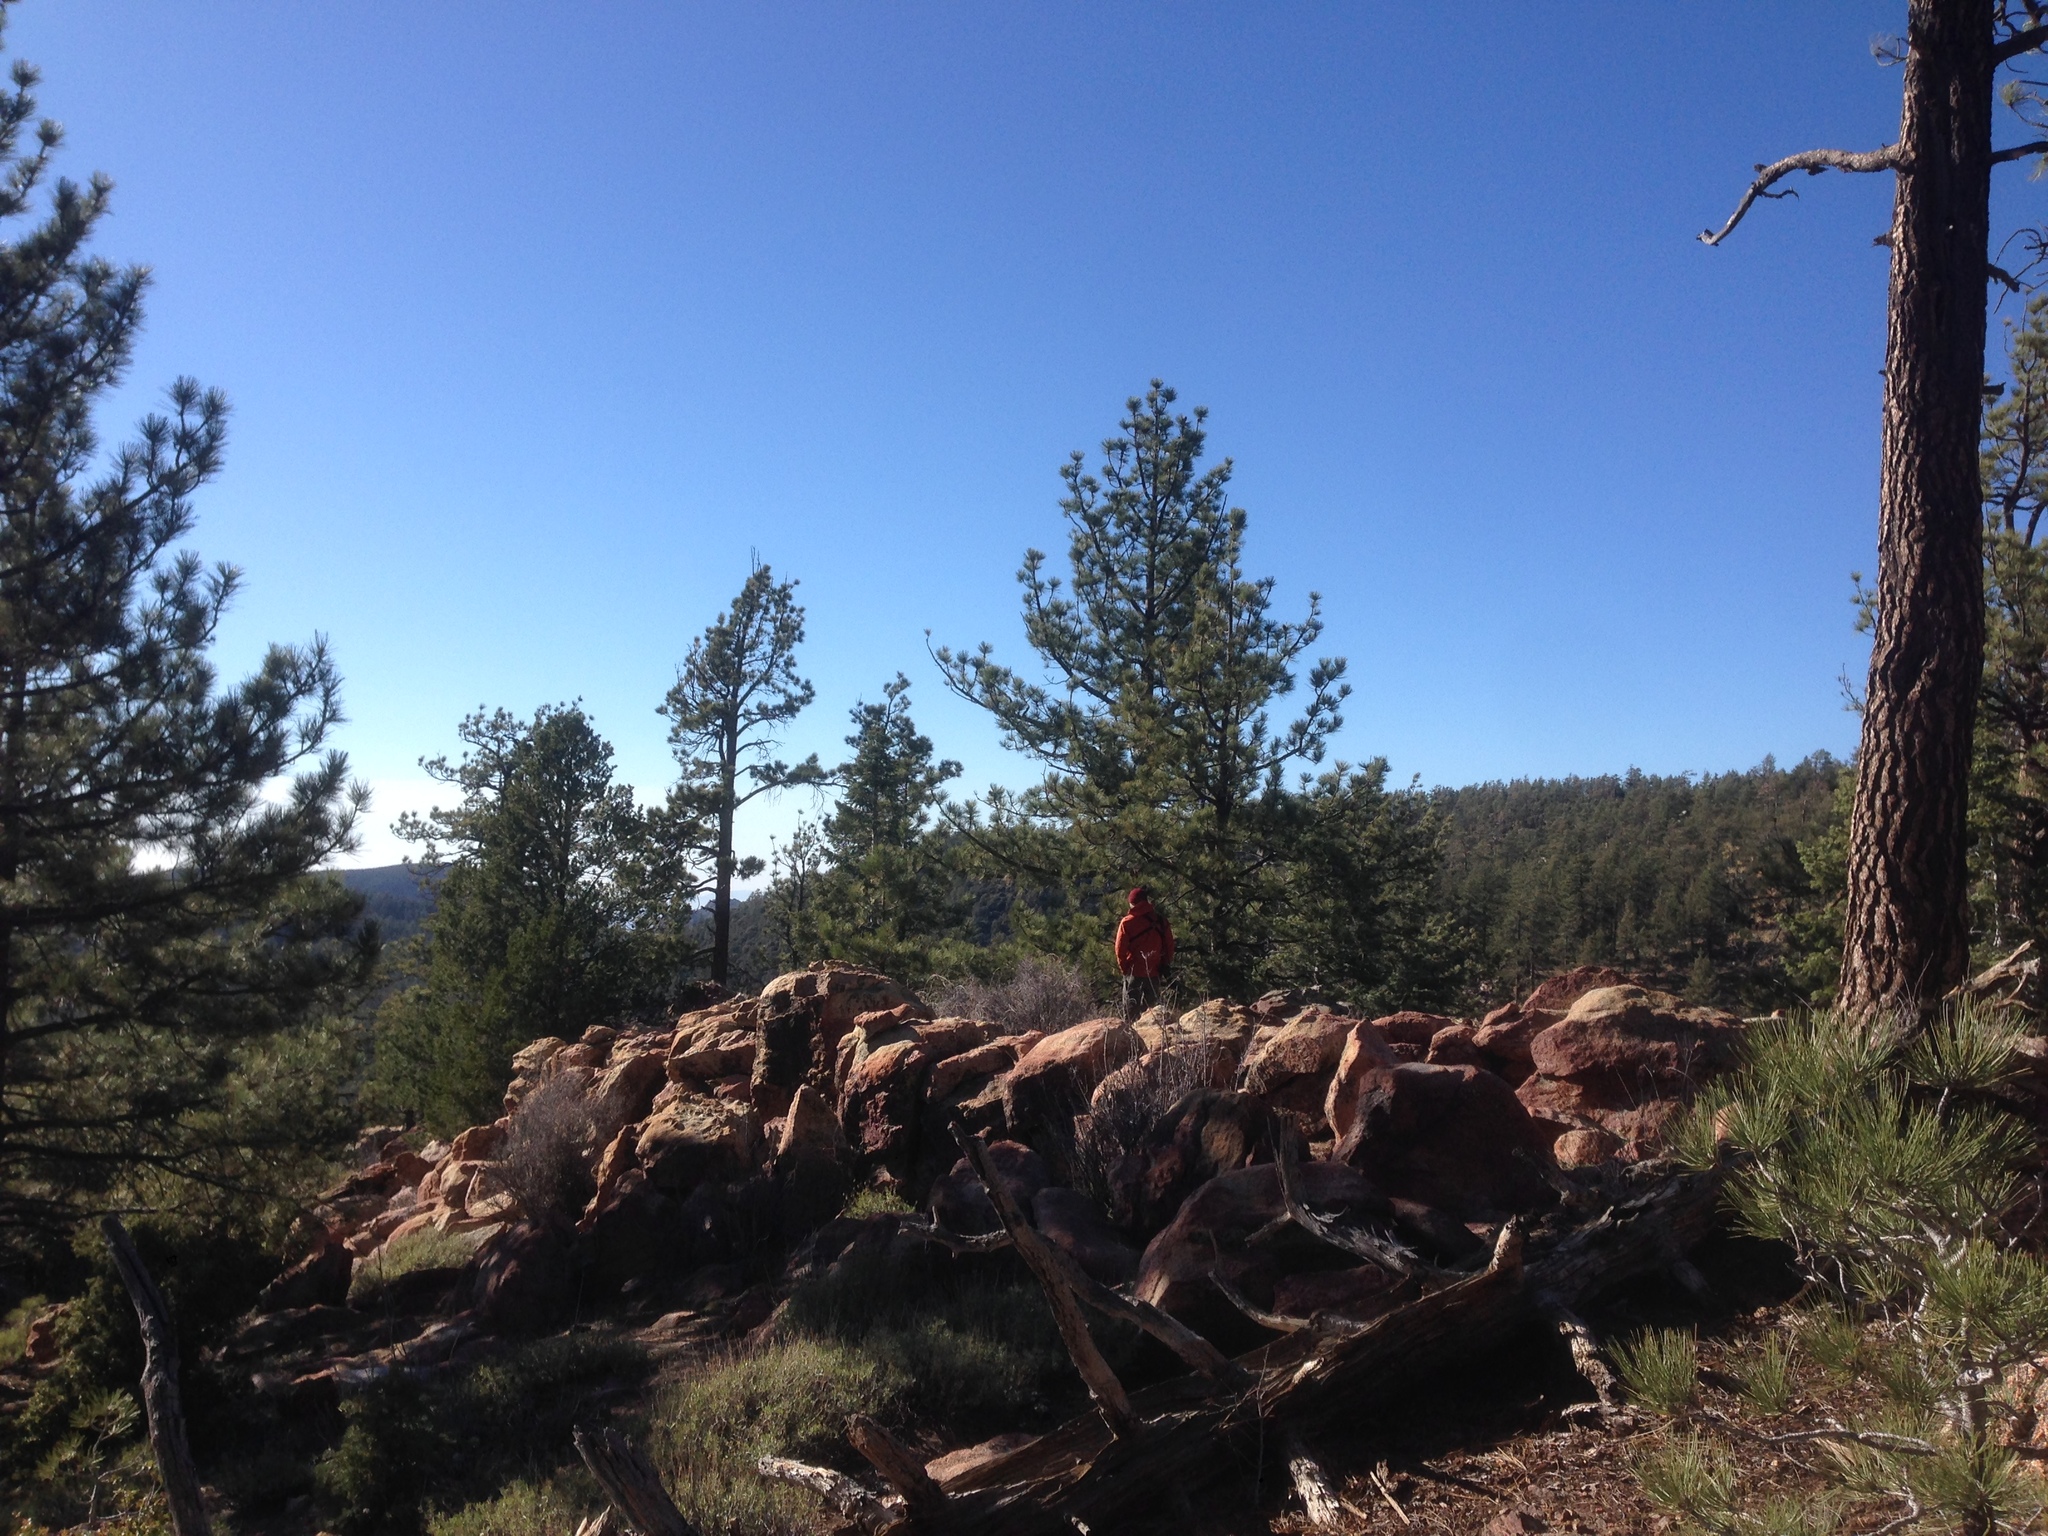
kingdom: Plantae
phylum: Tracheophyta
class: Pinopsida
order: Pinales
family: Pinaceae
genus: Pinus
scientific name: Pinus jeffreyi
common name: Jeffrey pine
